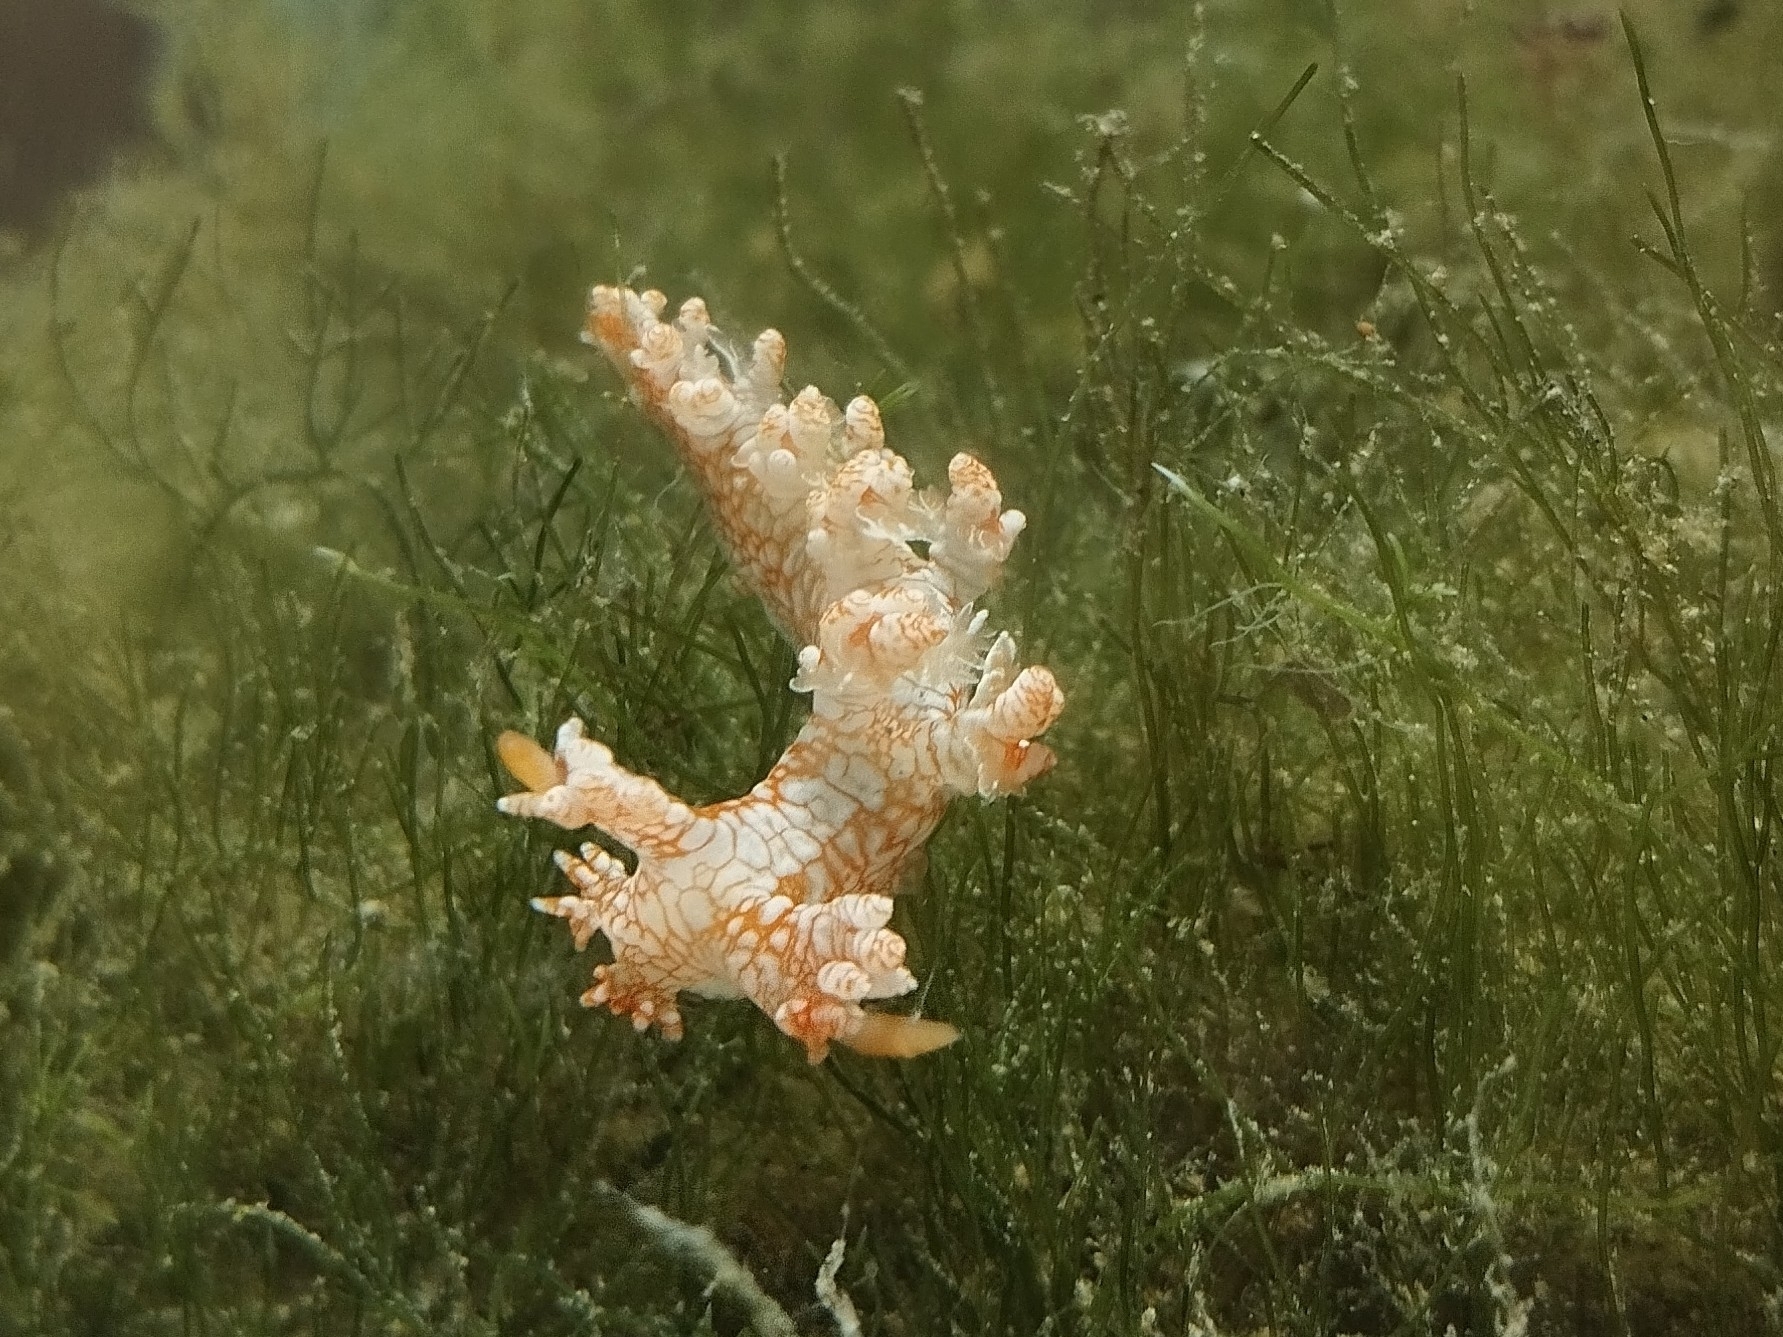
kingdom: Animalia
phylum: Mollusca
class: Gastropoda
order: Nudibranchia
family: Bornellidae
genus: Bornella
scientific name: Bornella calcarata
